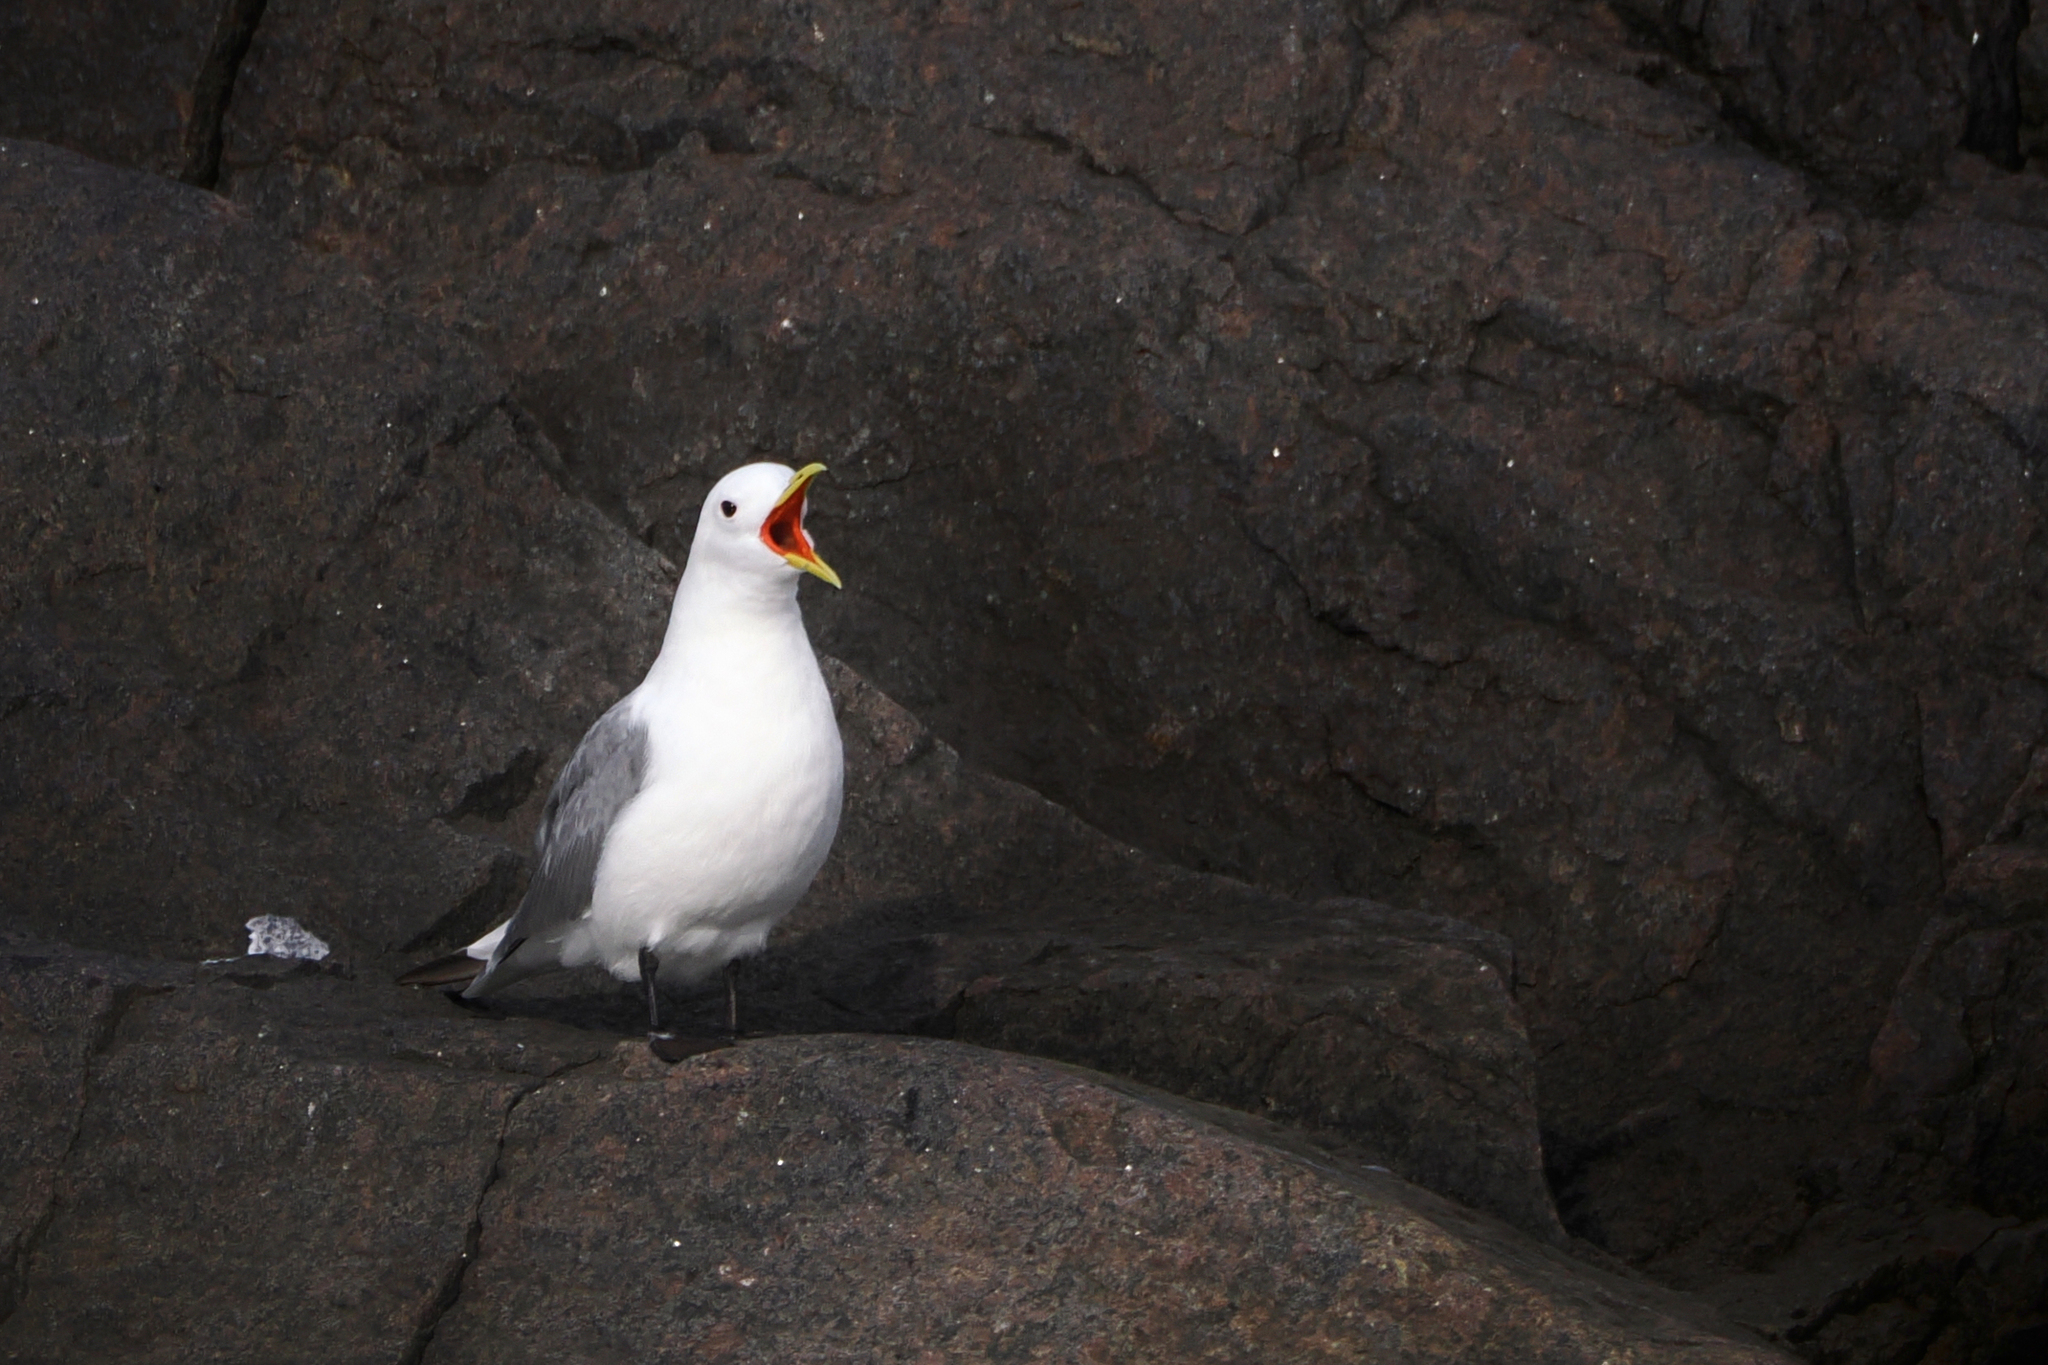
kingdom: Animalia
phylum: Chordata
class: Aves
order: Charadriiformes
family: Laridae
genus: Rissa
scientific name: Rissa tridactyla
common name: Black-legged kittiwake
